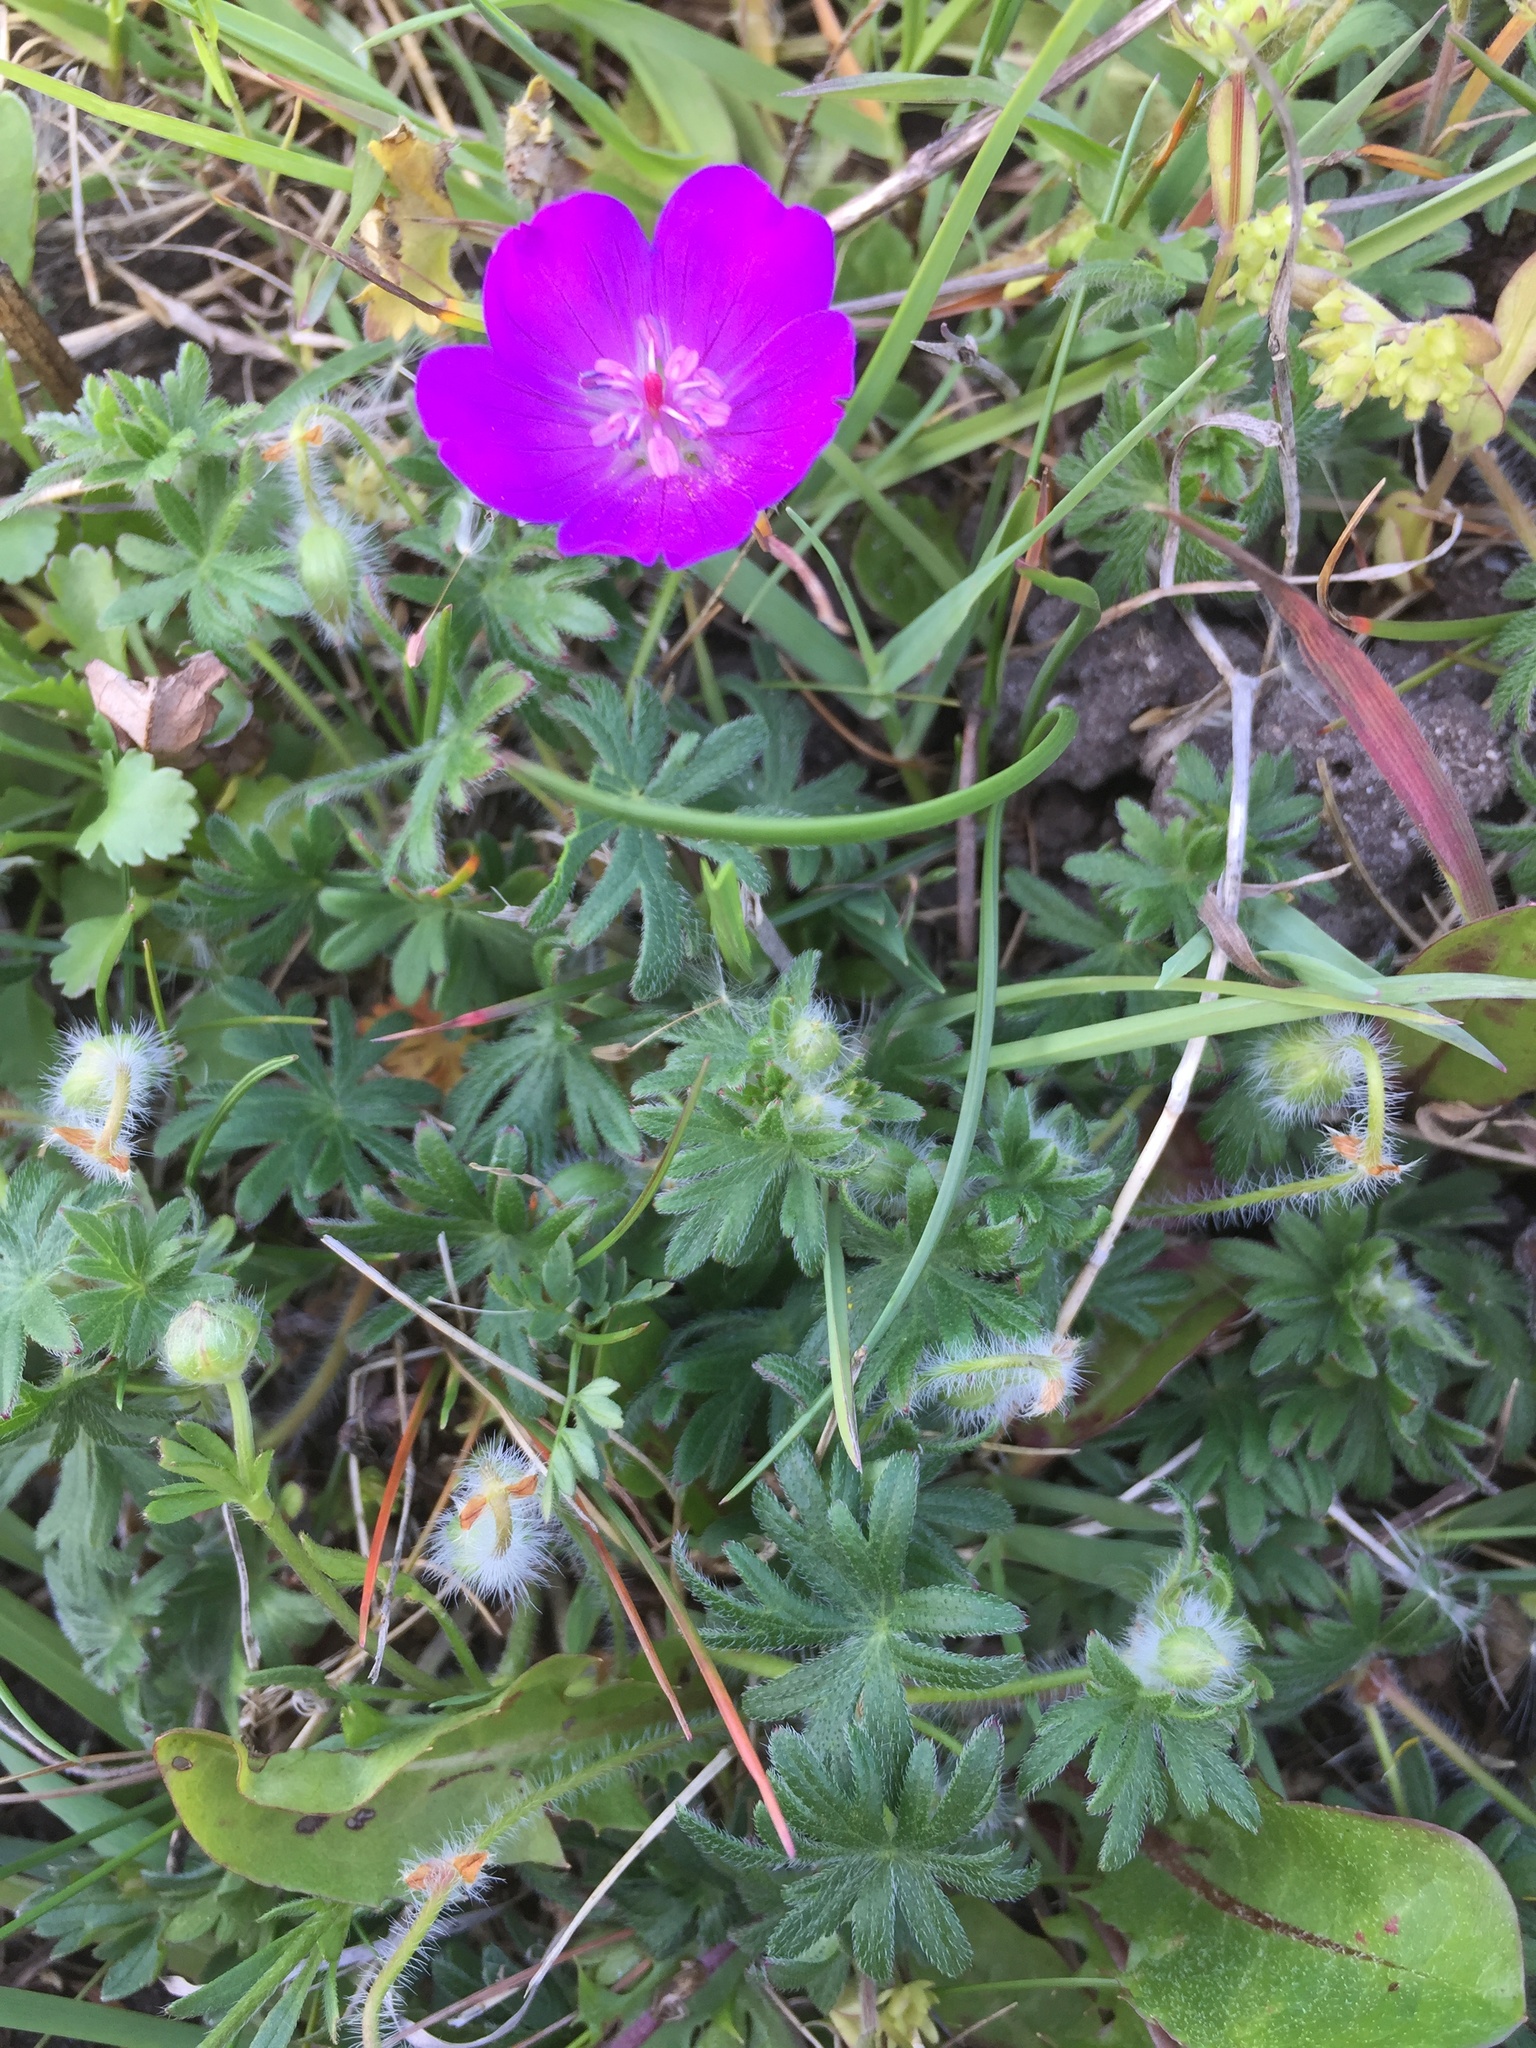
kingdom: Plantae
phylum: Tracheophyta
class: Magnoliopsida
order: Geraniales
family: Geraniaceae
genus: Geranium
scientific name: Geranium sanguineum
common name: Bloody crane's-bill
